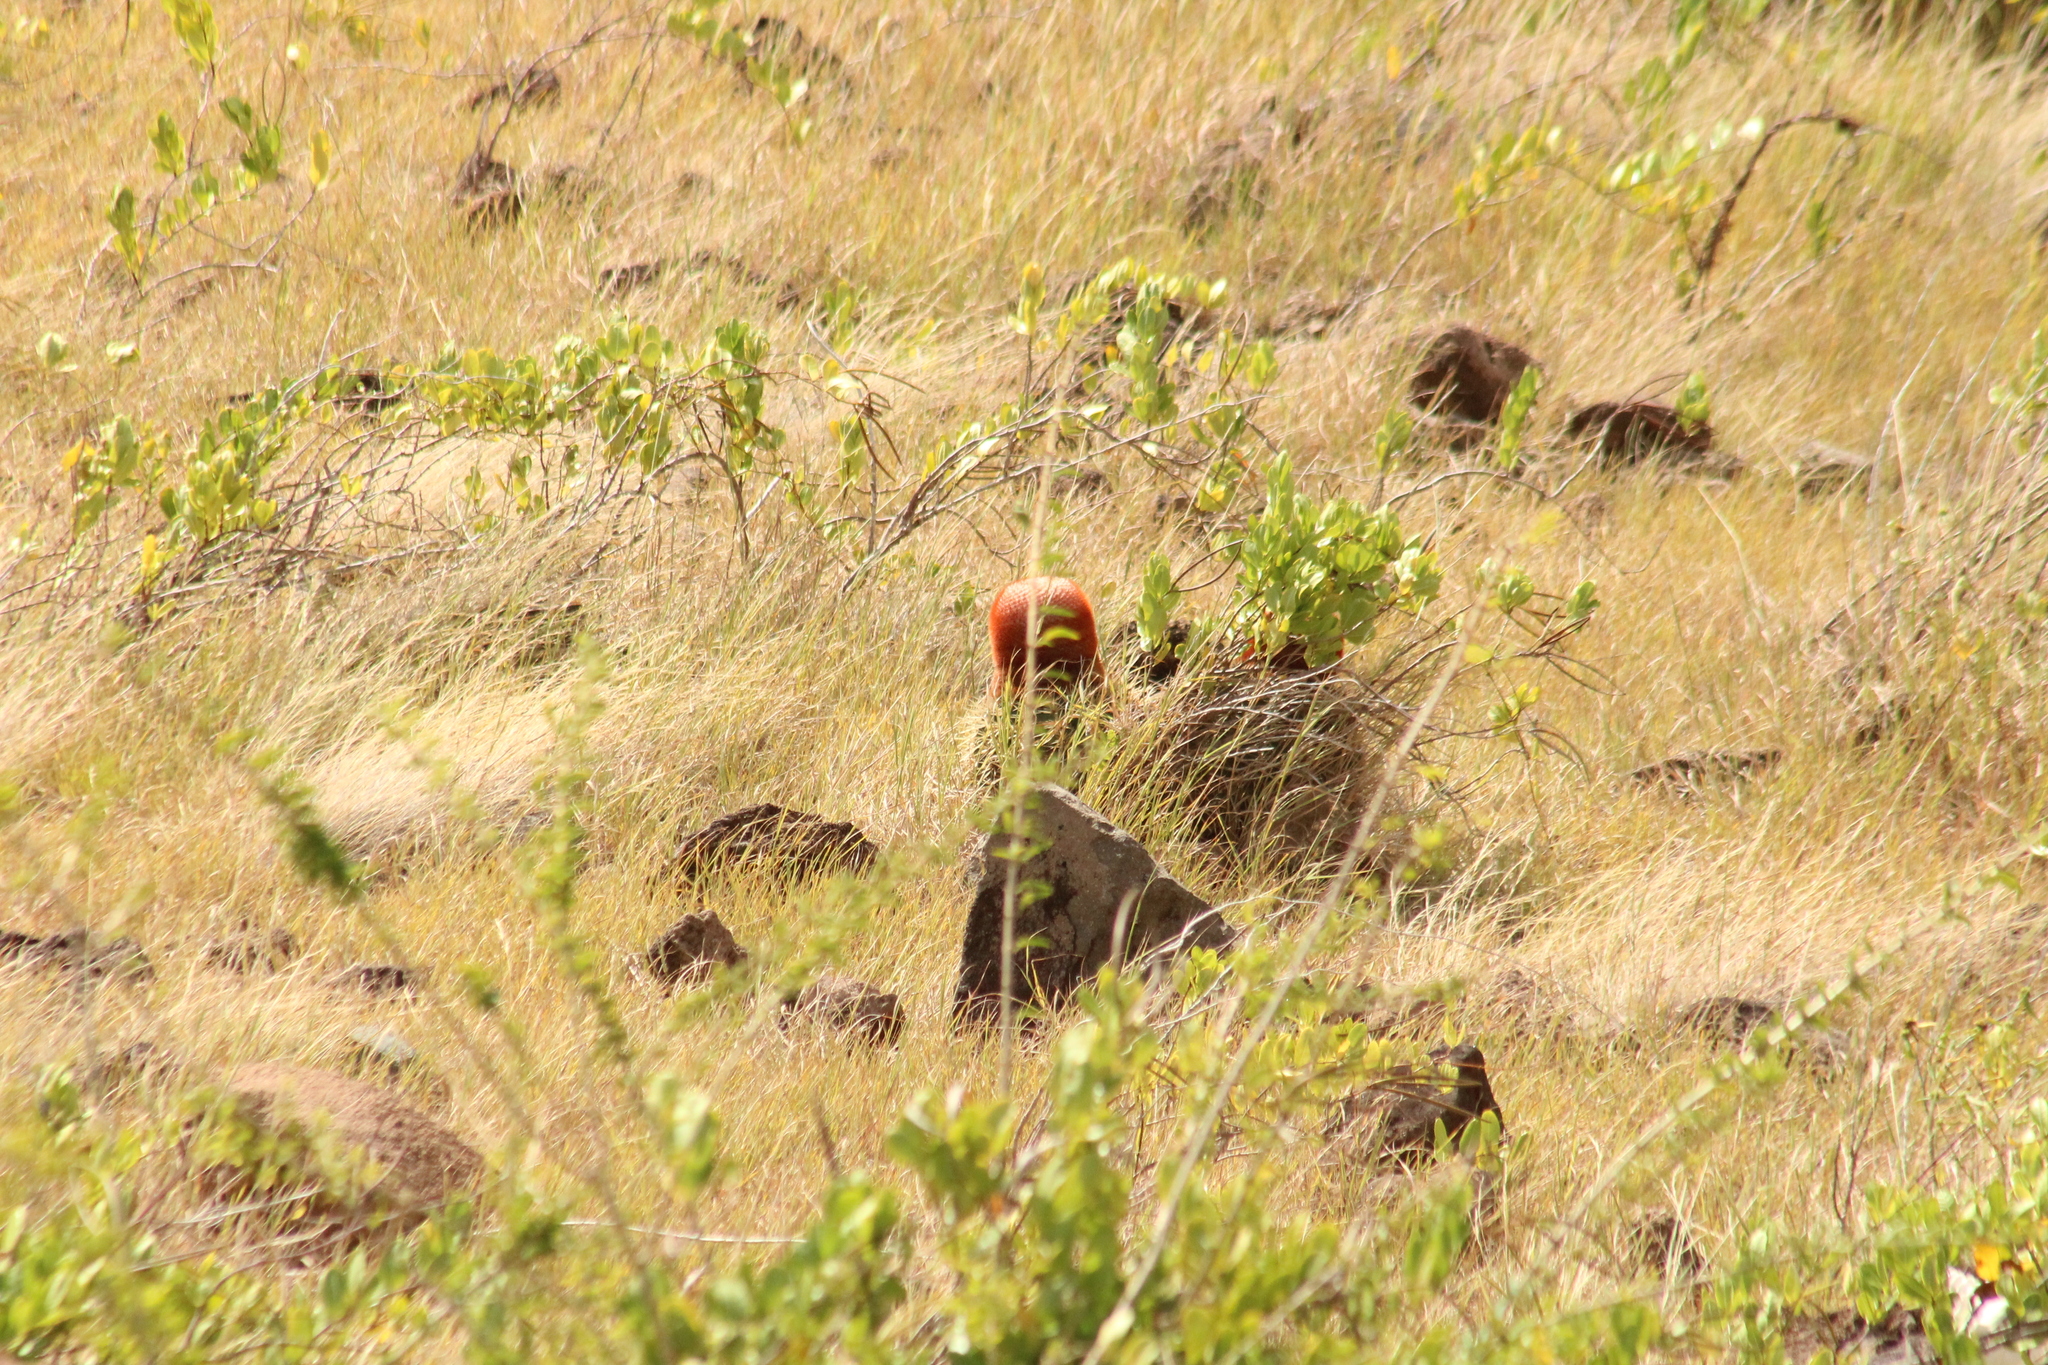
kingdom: Plantae
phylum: Tracheophyta
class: Magnoliopsida
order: Caryophyllales
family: Cactaceae
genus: Melocactus
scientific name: Melocactus intortus
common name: Barrel cactus
